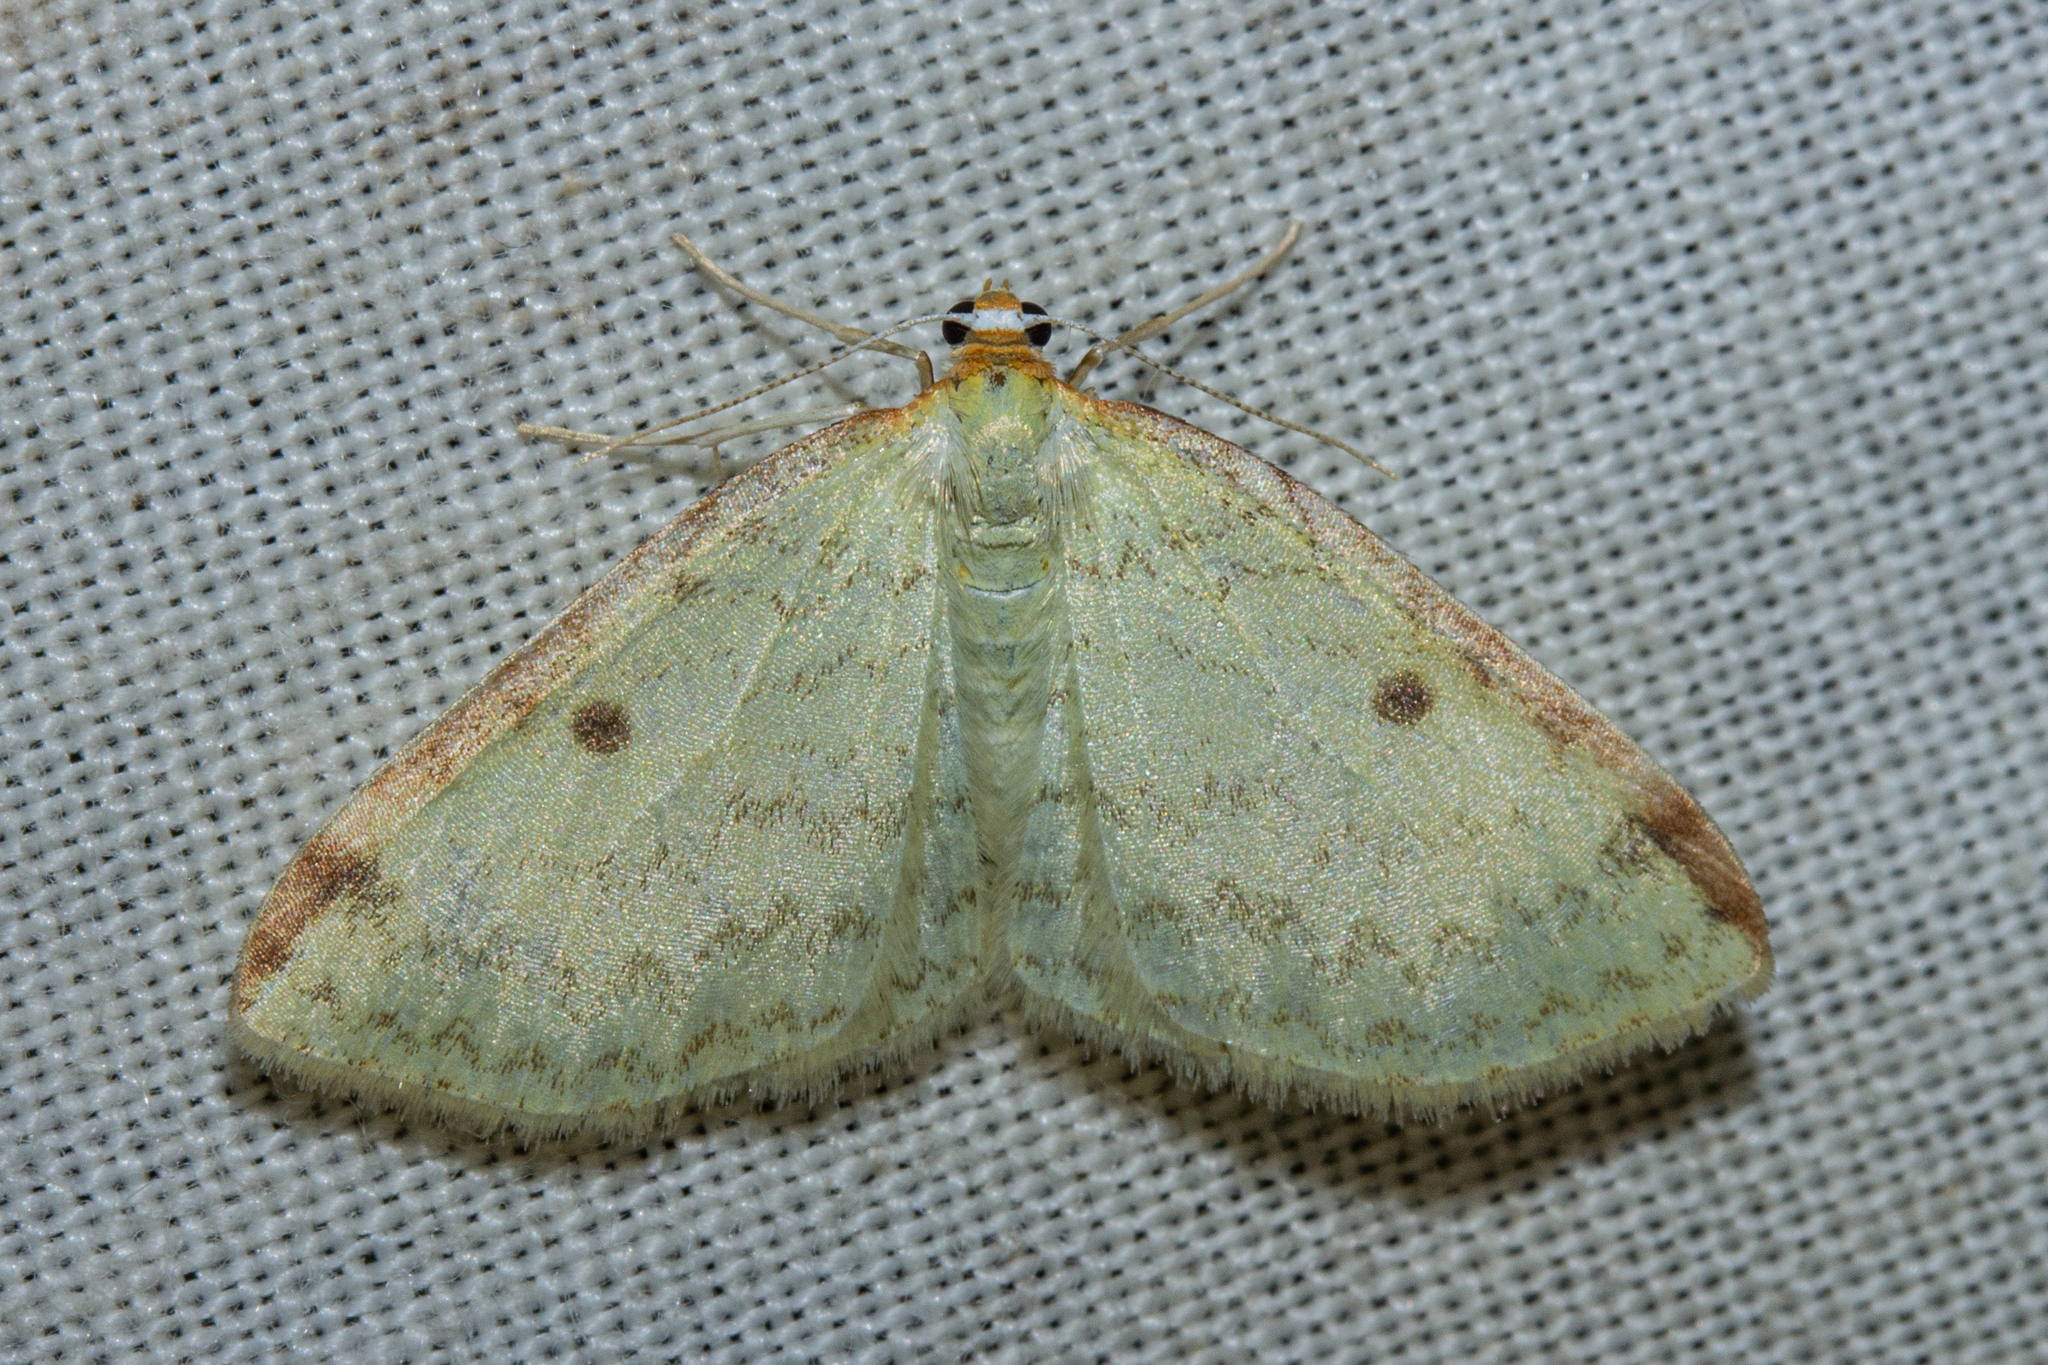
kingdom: Animalia
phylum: Arthropoda
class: Insecta
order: Lepidoptera
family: Geometridae
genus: Epiphryne
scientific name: Epiphryne undosata
